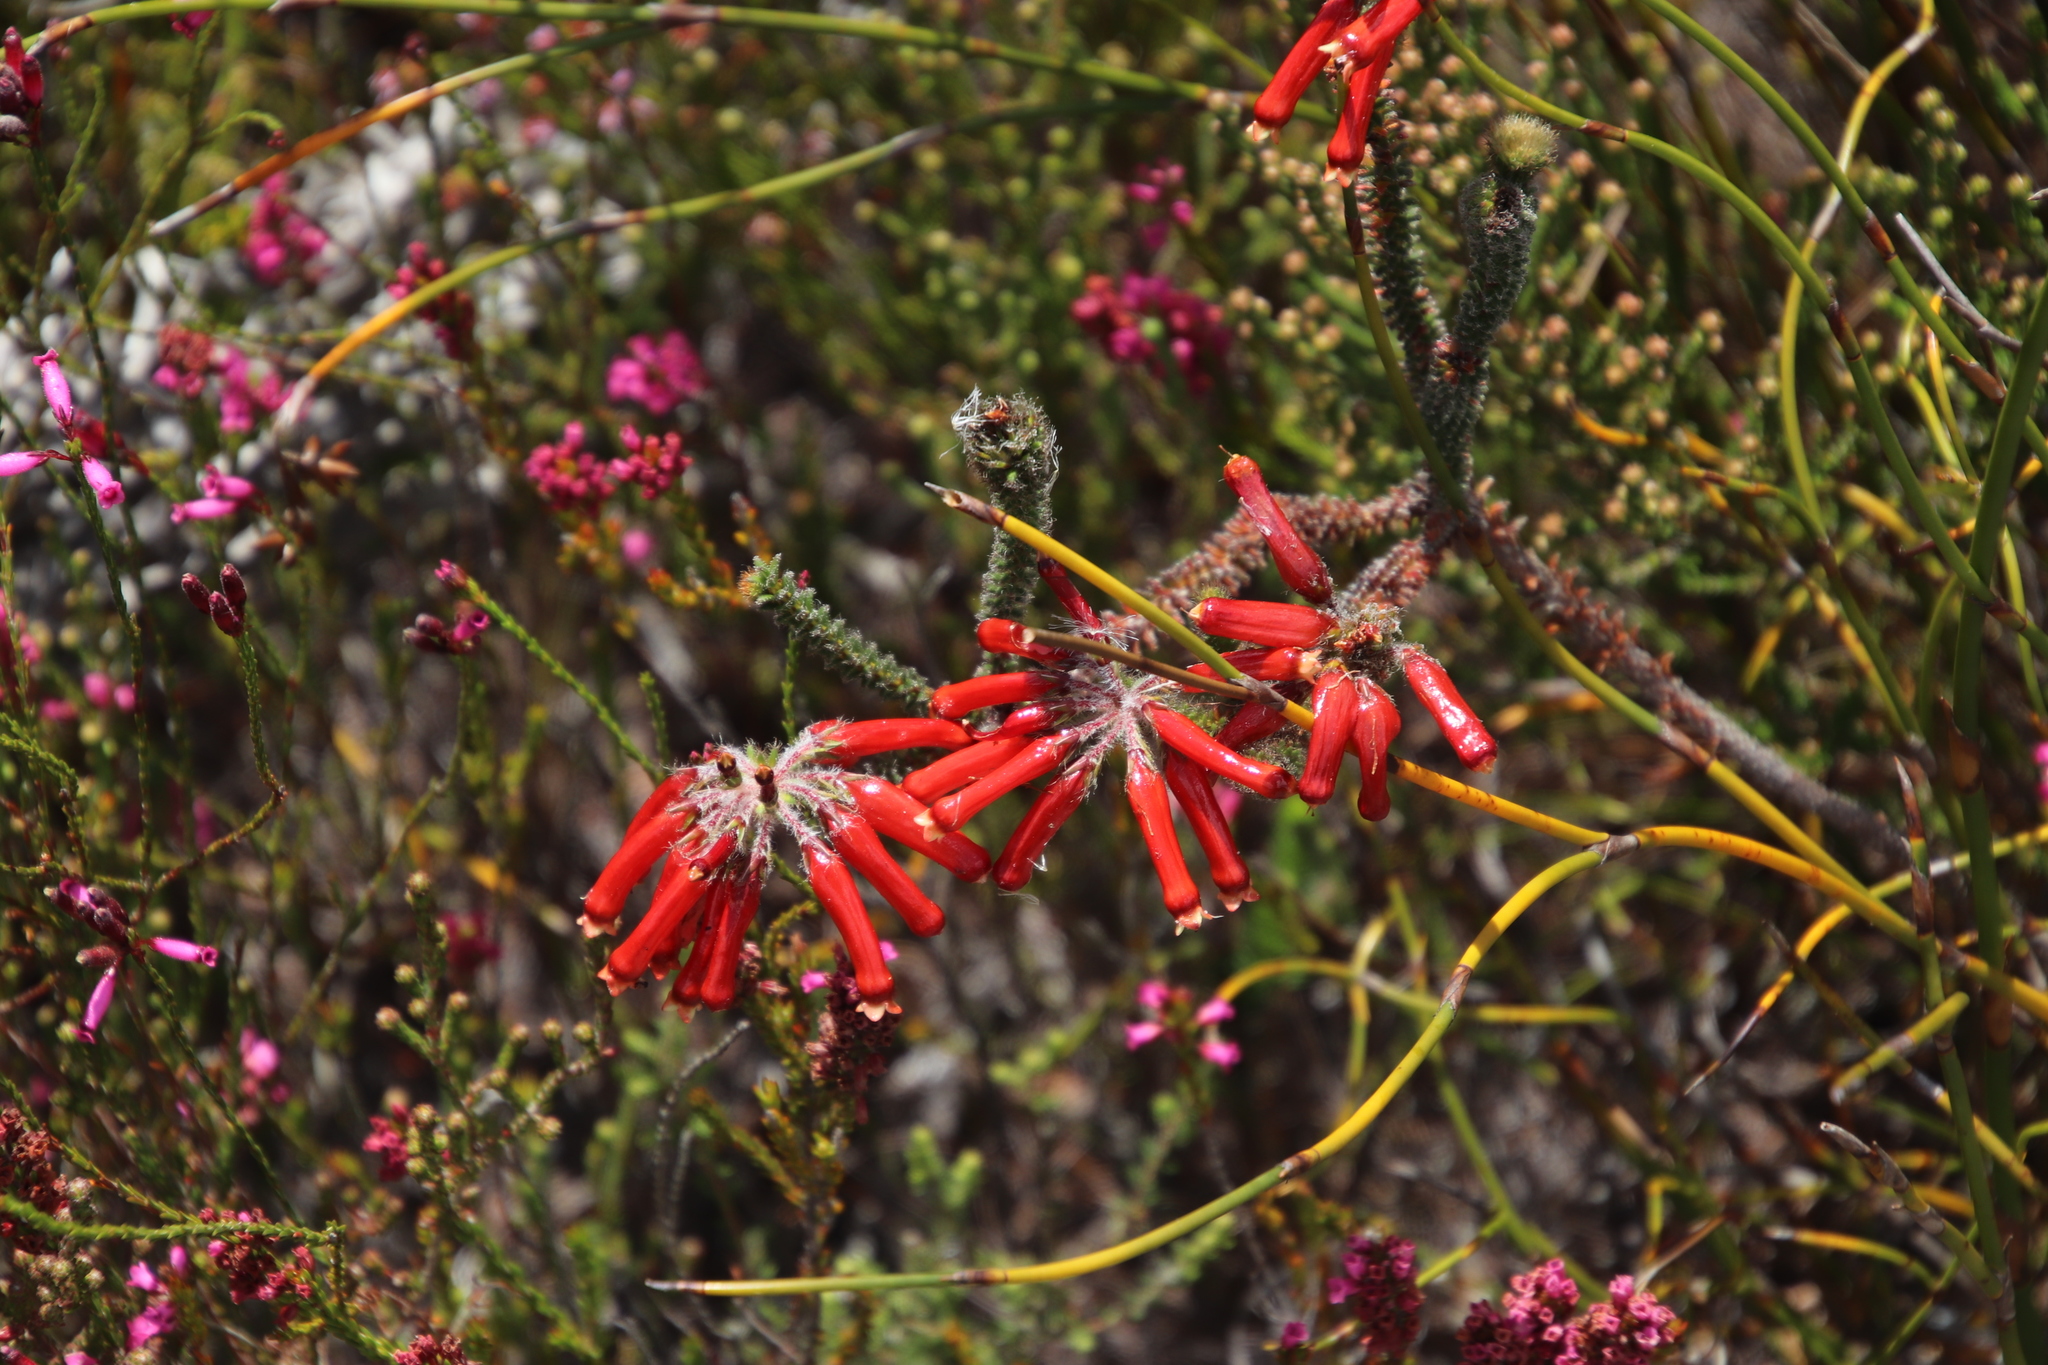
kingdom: Plantae
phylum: Tracheophyta
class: Magnoliopsida
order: Ericales
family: Ericaceae
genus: Erica
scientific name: Erica massonii
